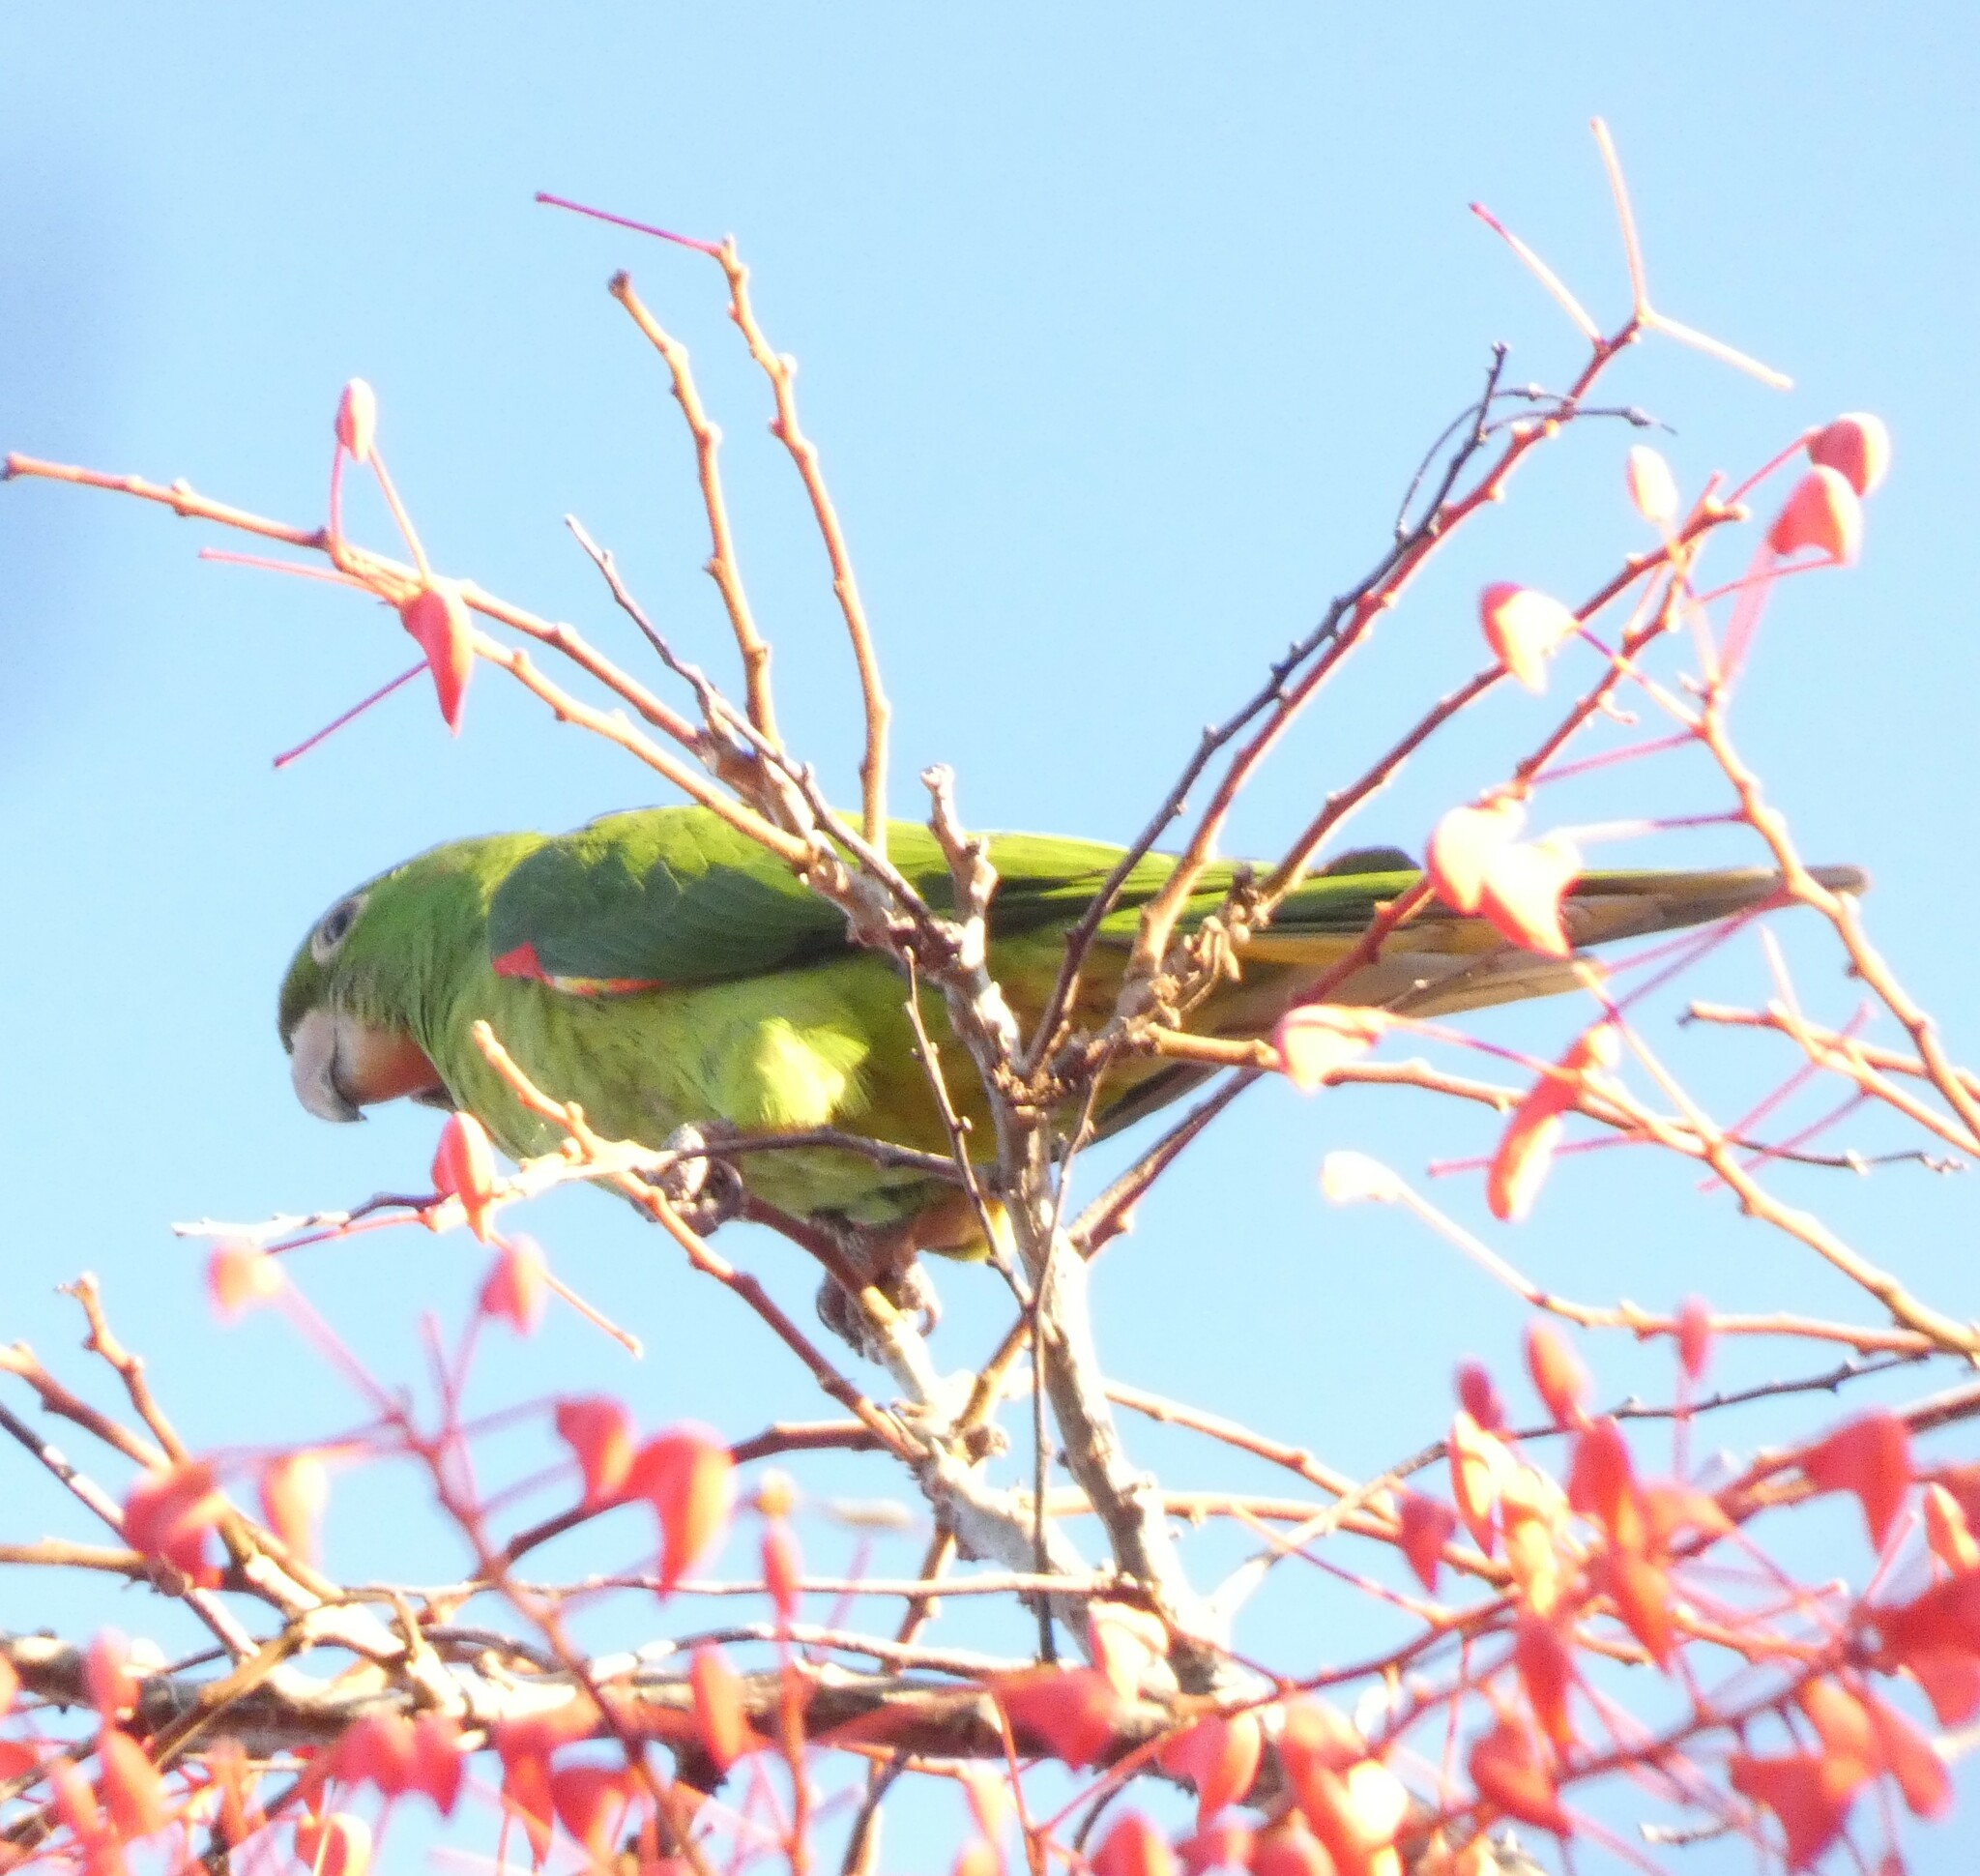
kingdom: Animalia
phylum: Chordata
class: Aves
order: Psittaciformes
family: Psittacidae
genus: Aratinga
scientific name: Aratinga leucophthalma
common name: White-eyed parakeet
